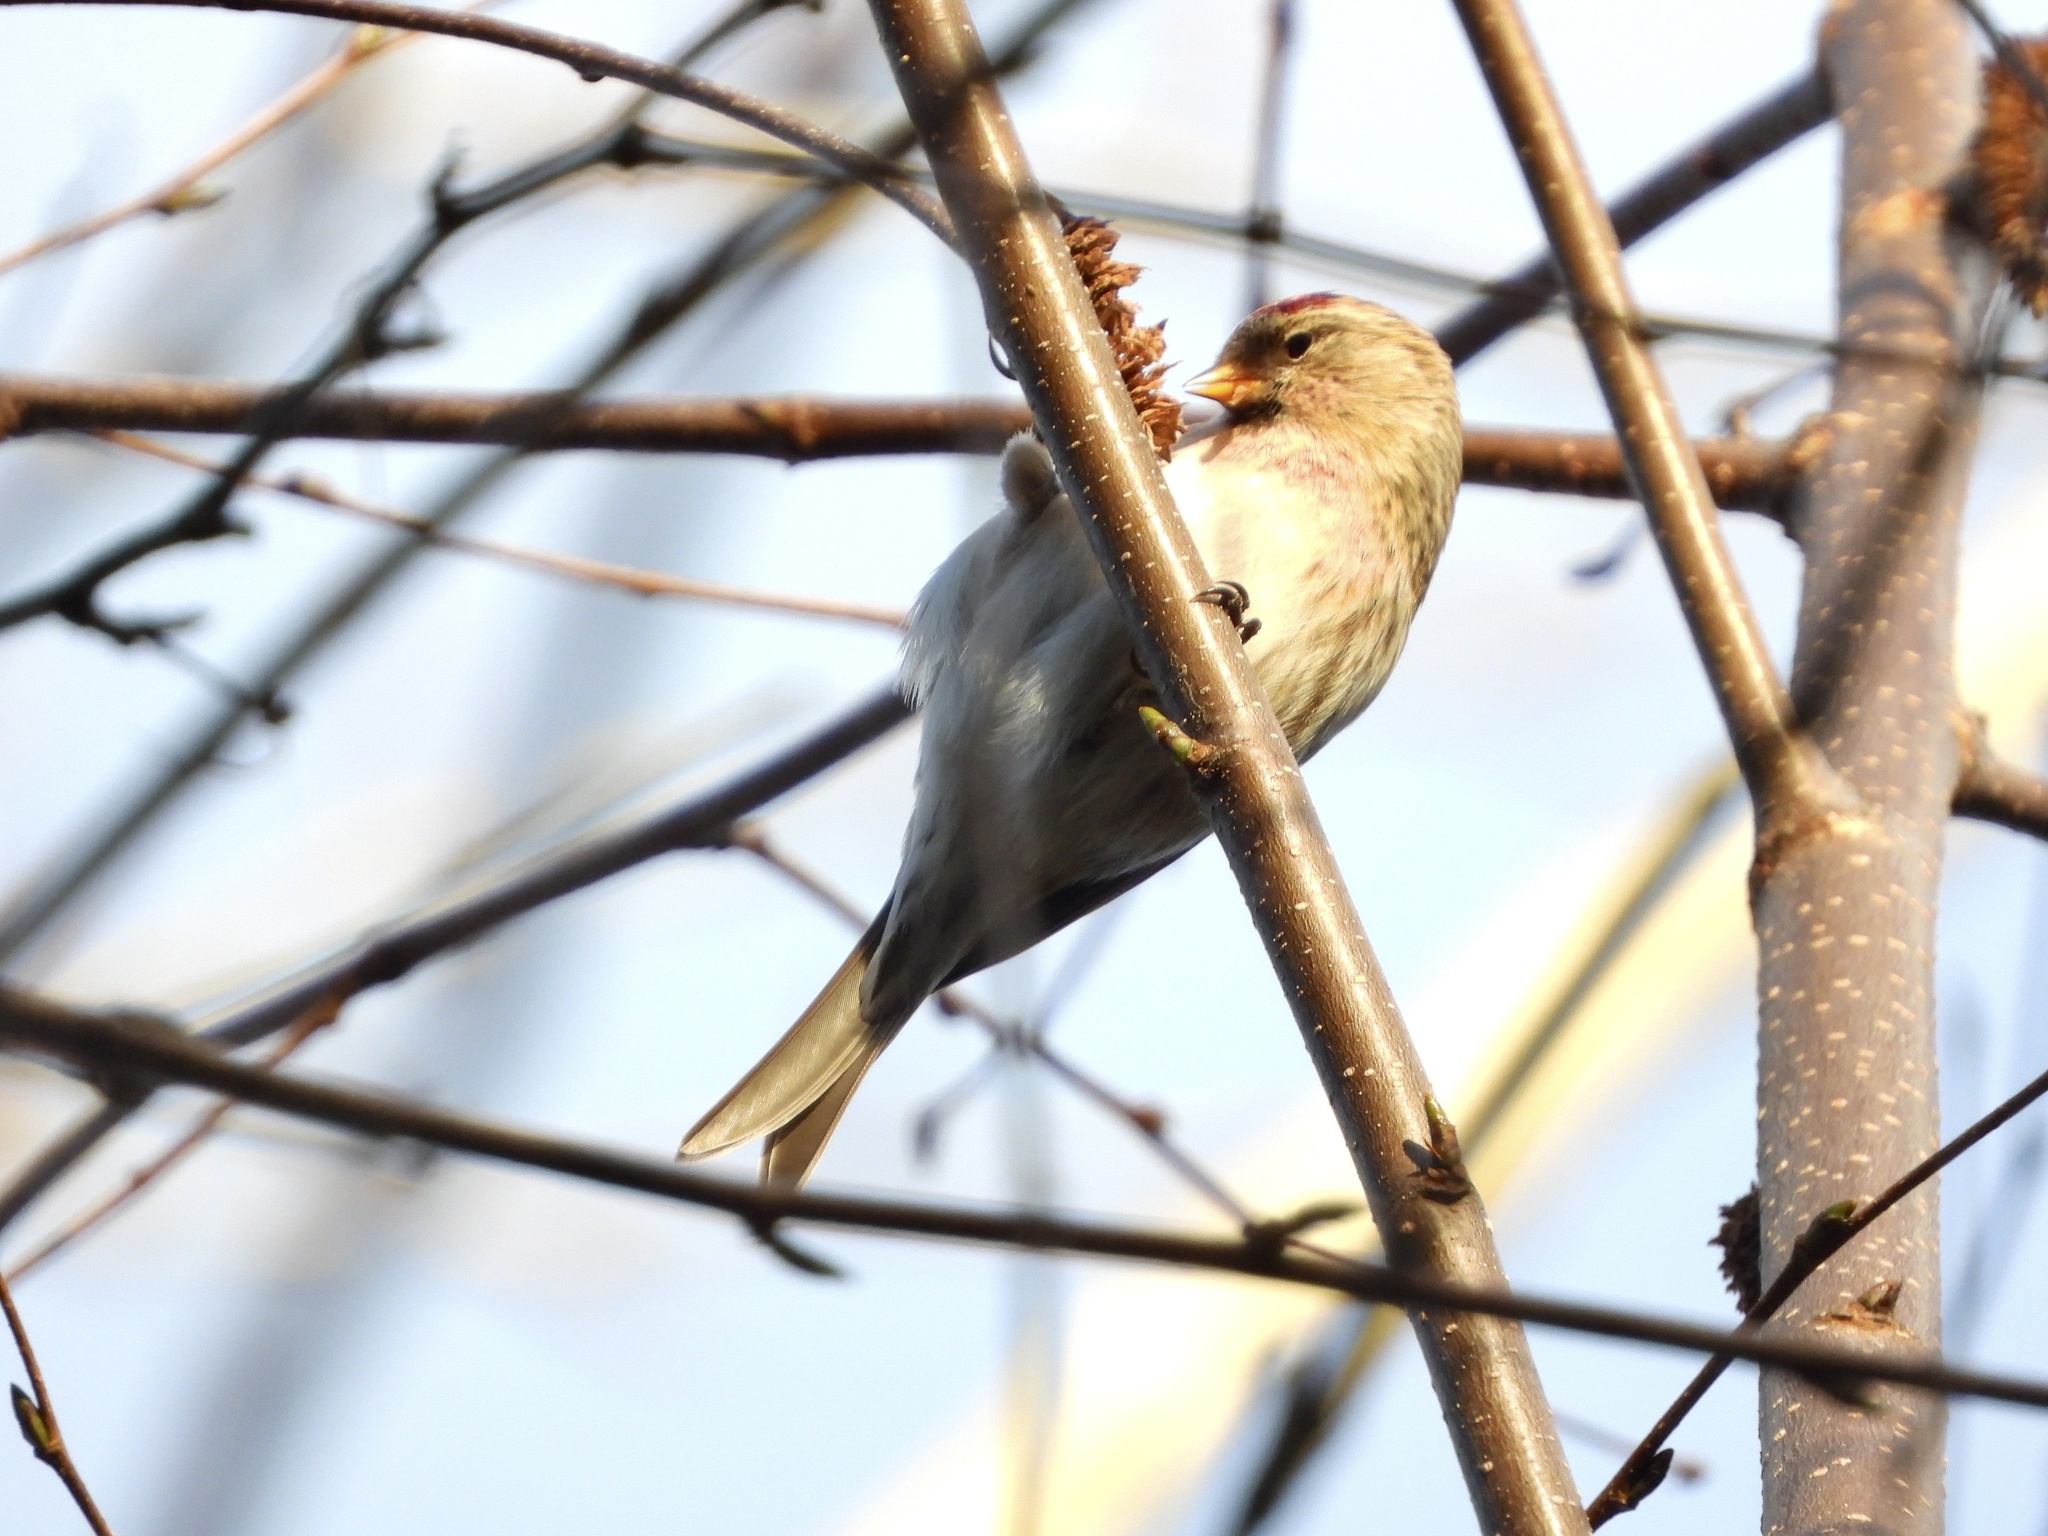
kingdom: Animalia
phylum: Chordata
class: Aves
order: Passeriformes
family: Fringillidae
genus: Acanthis
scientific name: Acanthis flammea
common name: Common redpoll
